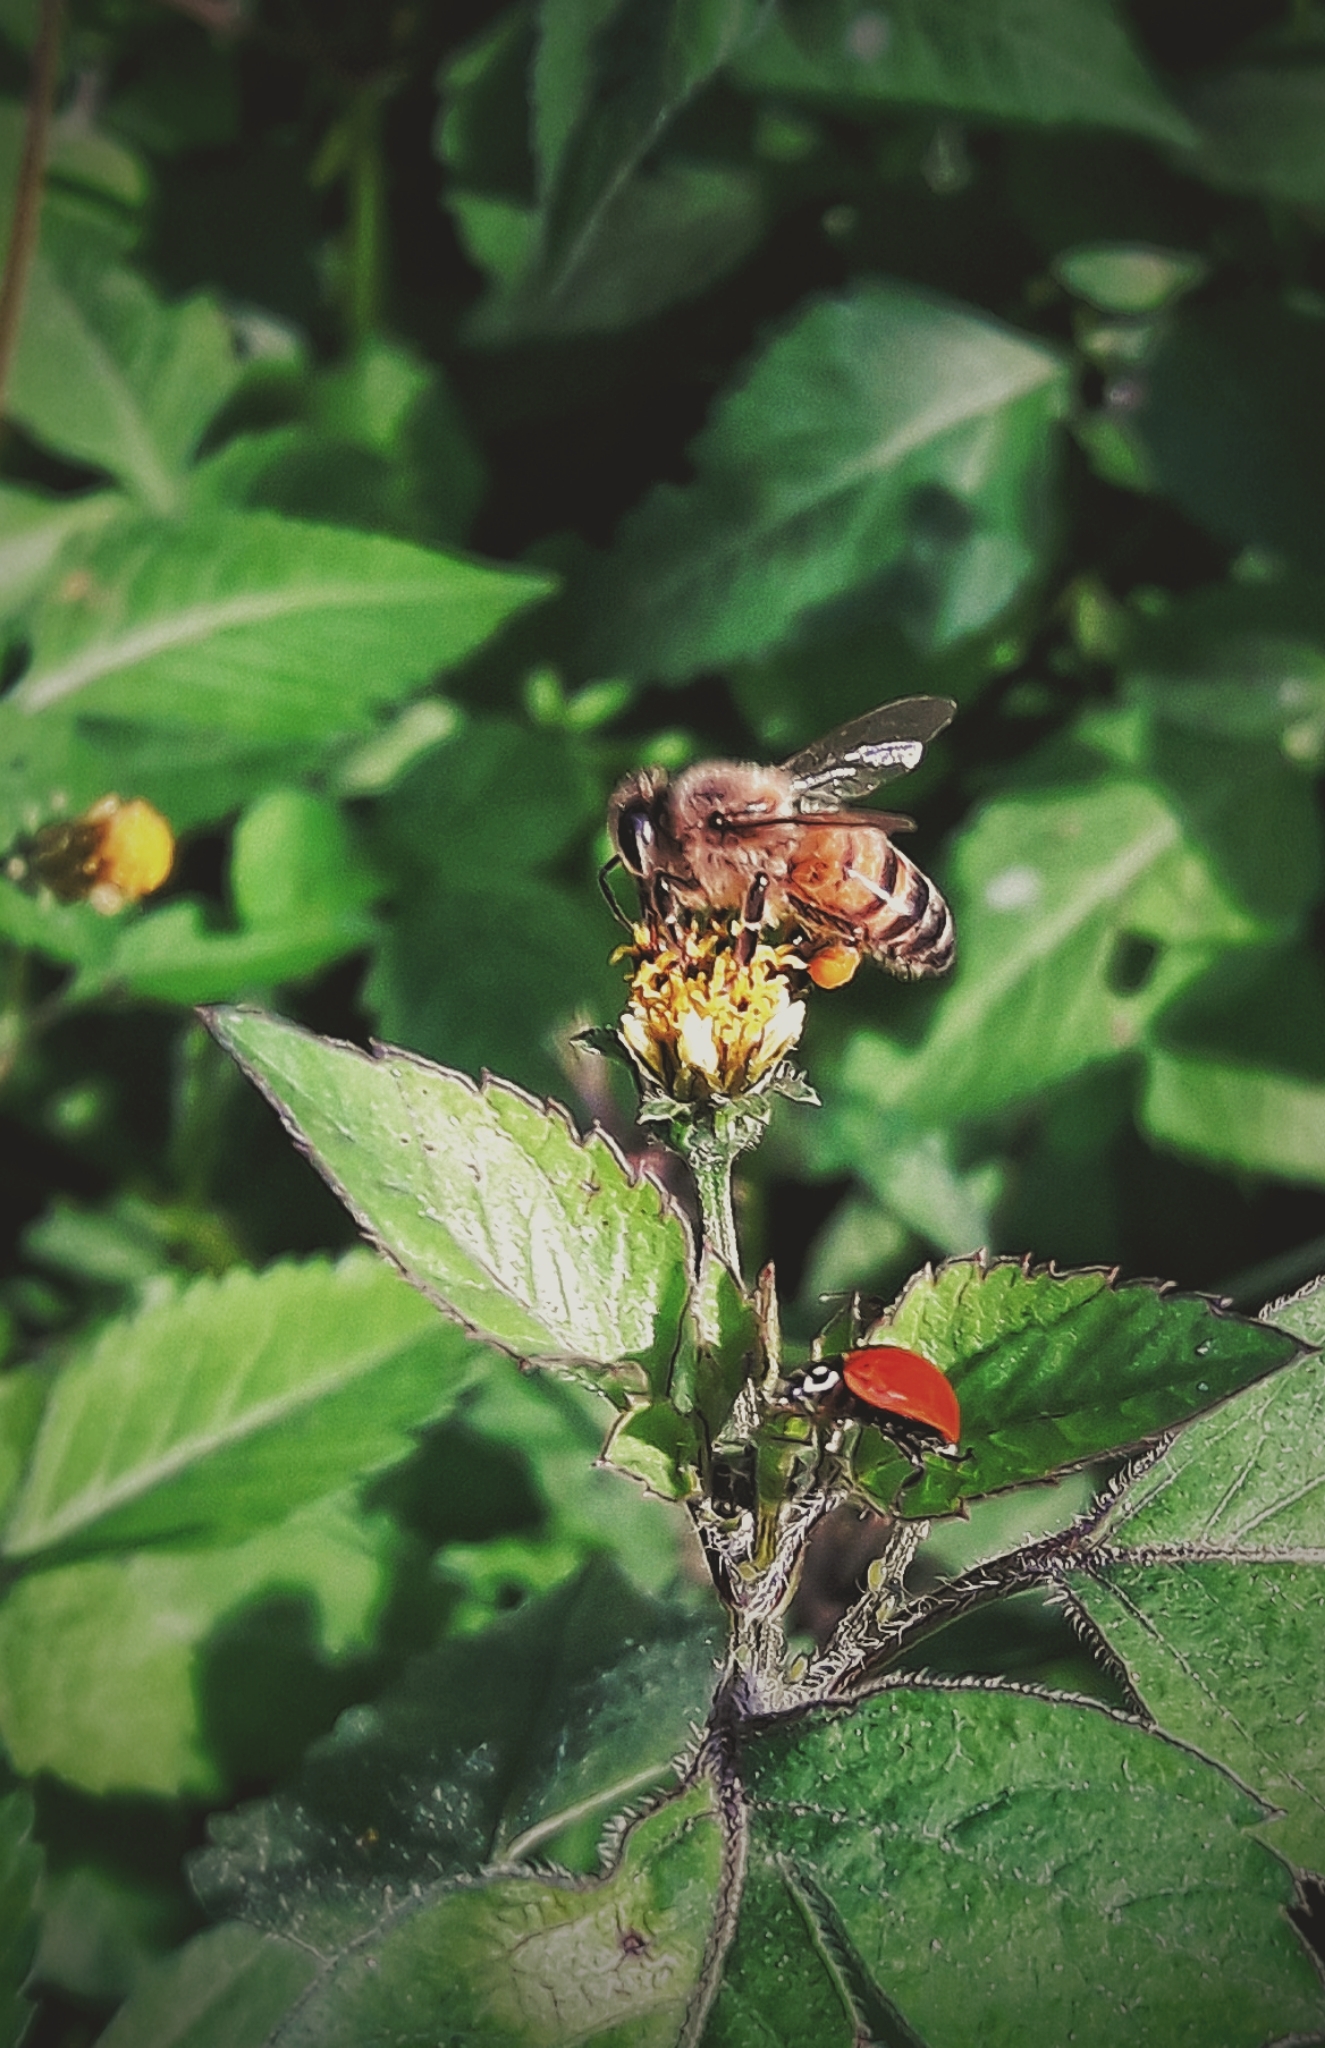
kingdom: Animalia
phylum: Arthropoda
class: Insecta
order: Hymenoptera
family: Apidae
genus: Apis
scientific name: Apis mellifera
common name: Honey bee
